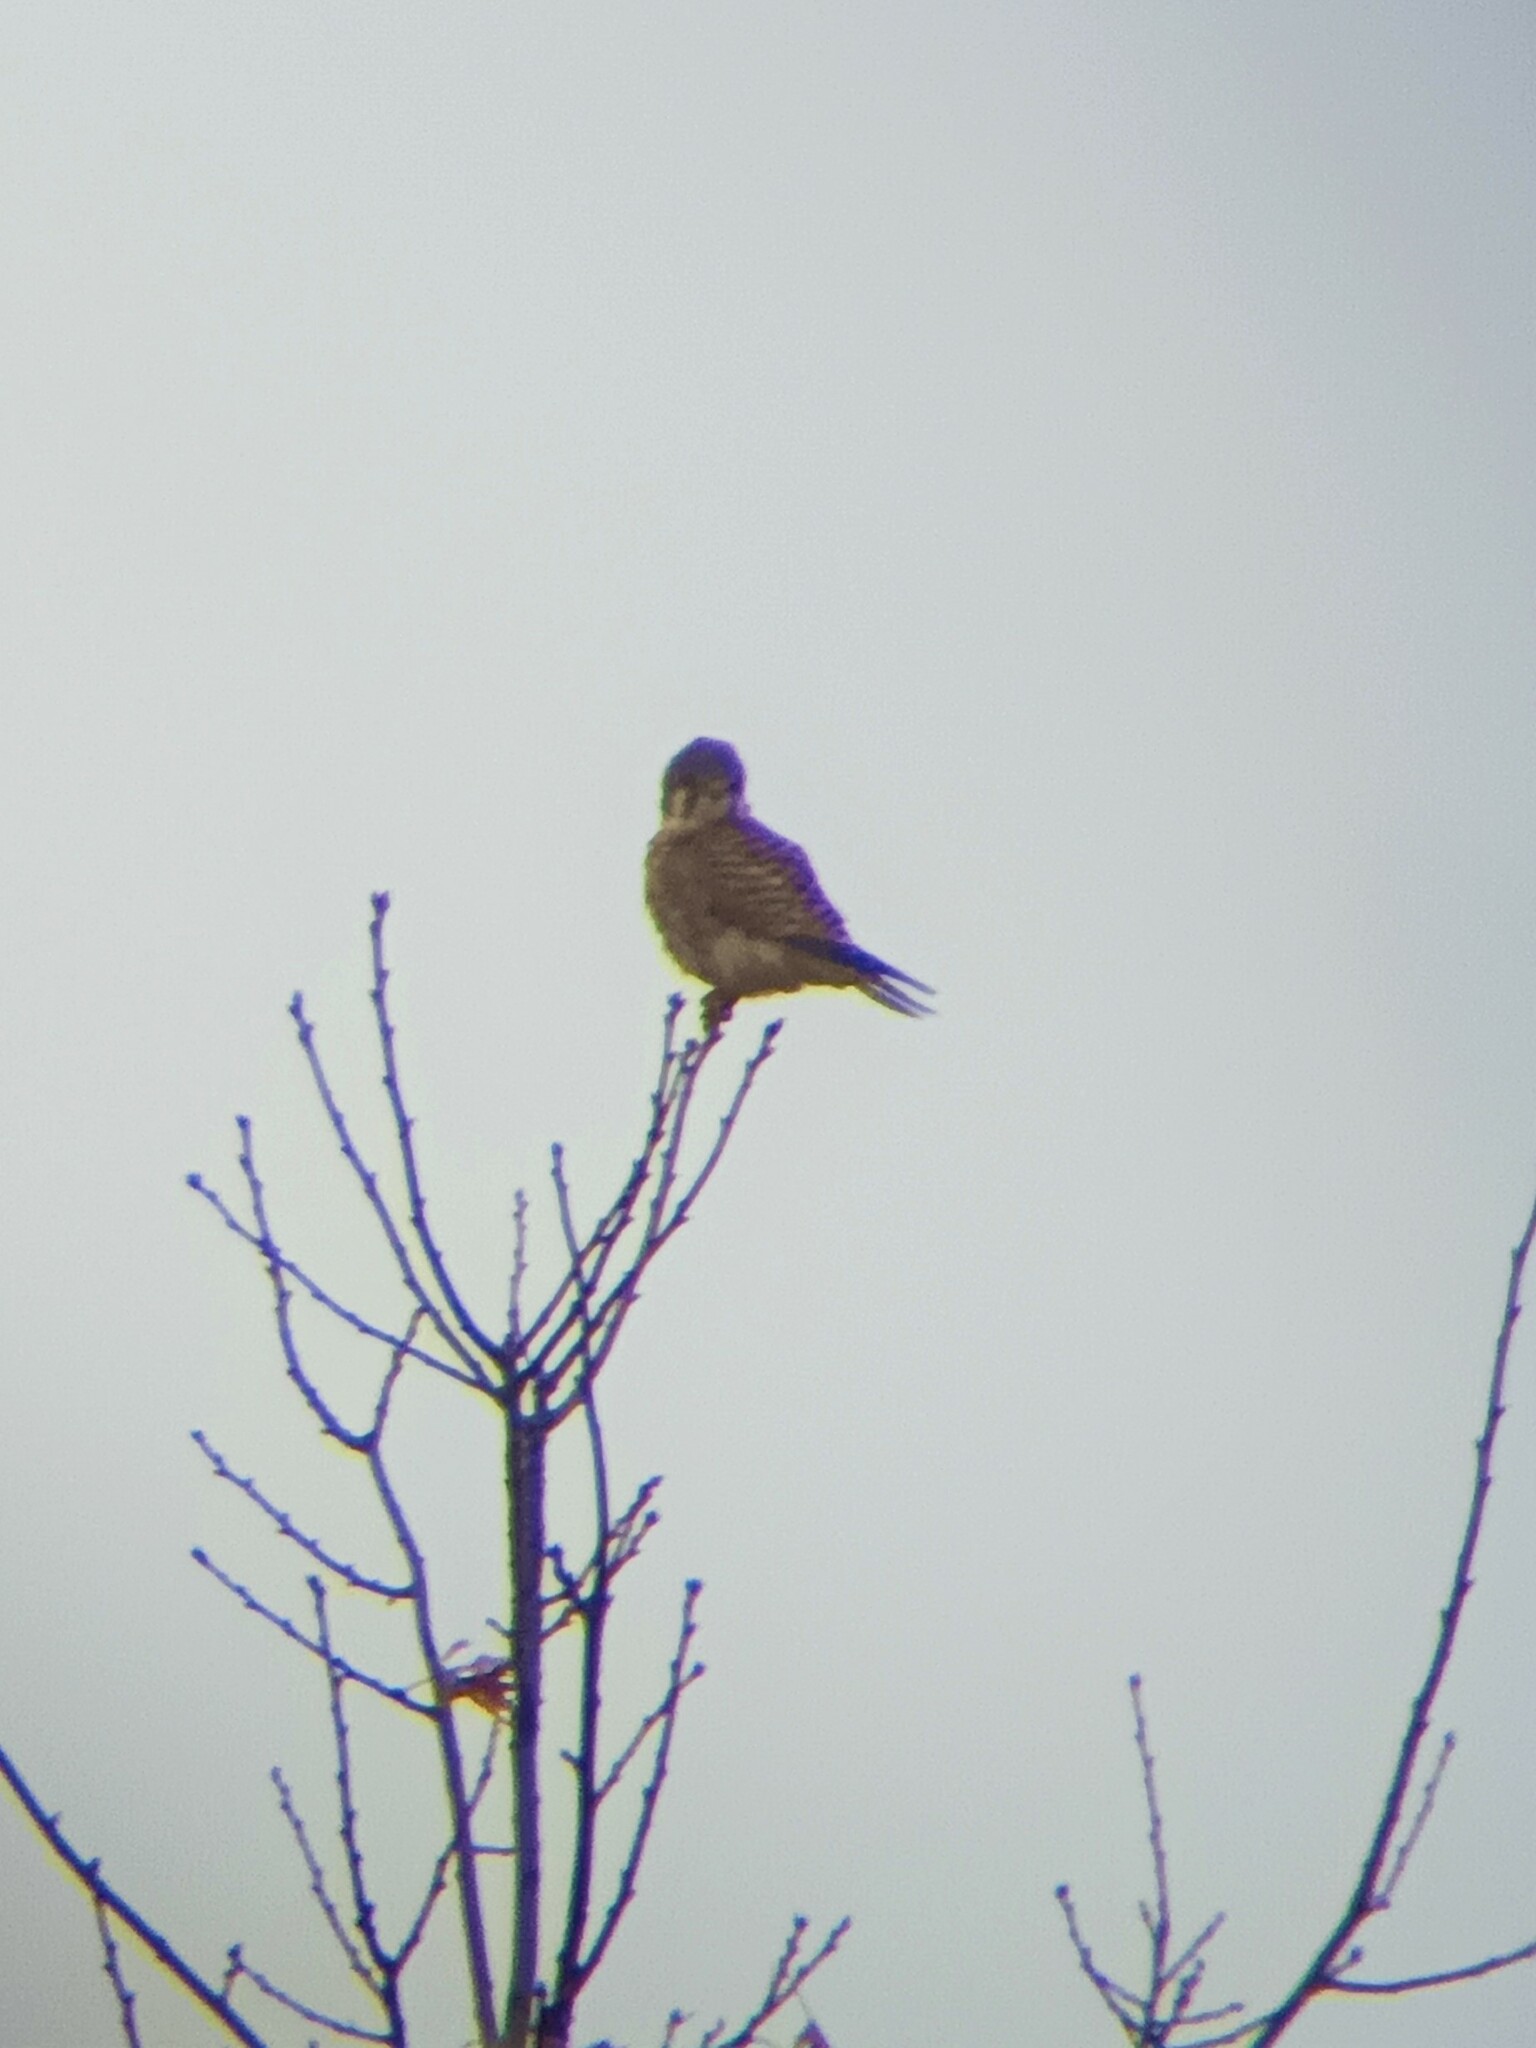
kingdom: Animalia
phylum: Chordata
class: Aves
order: Falconiformes
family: Falconidae
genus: Falco
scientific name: Falco sparverius
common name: American kestrel
